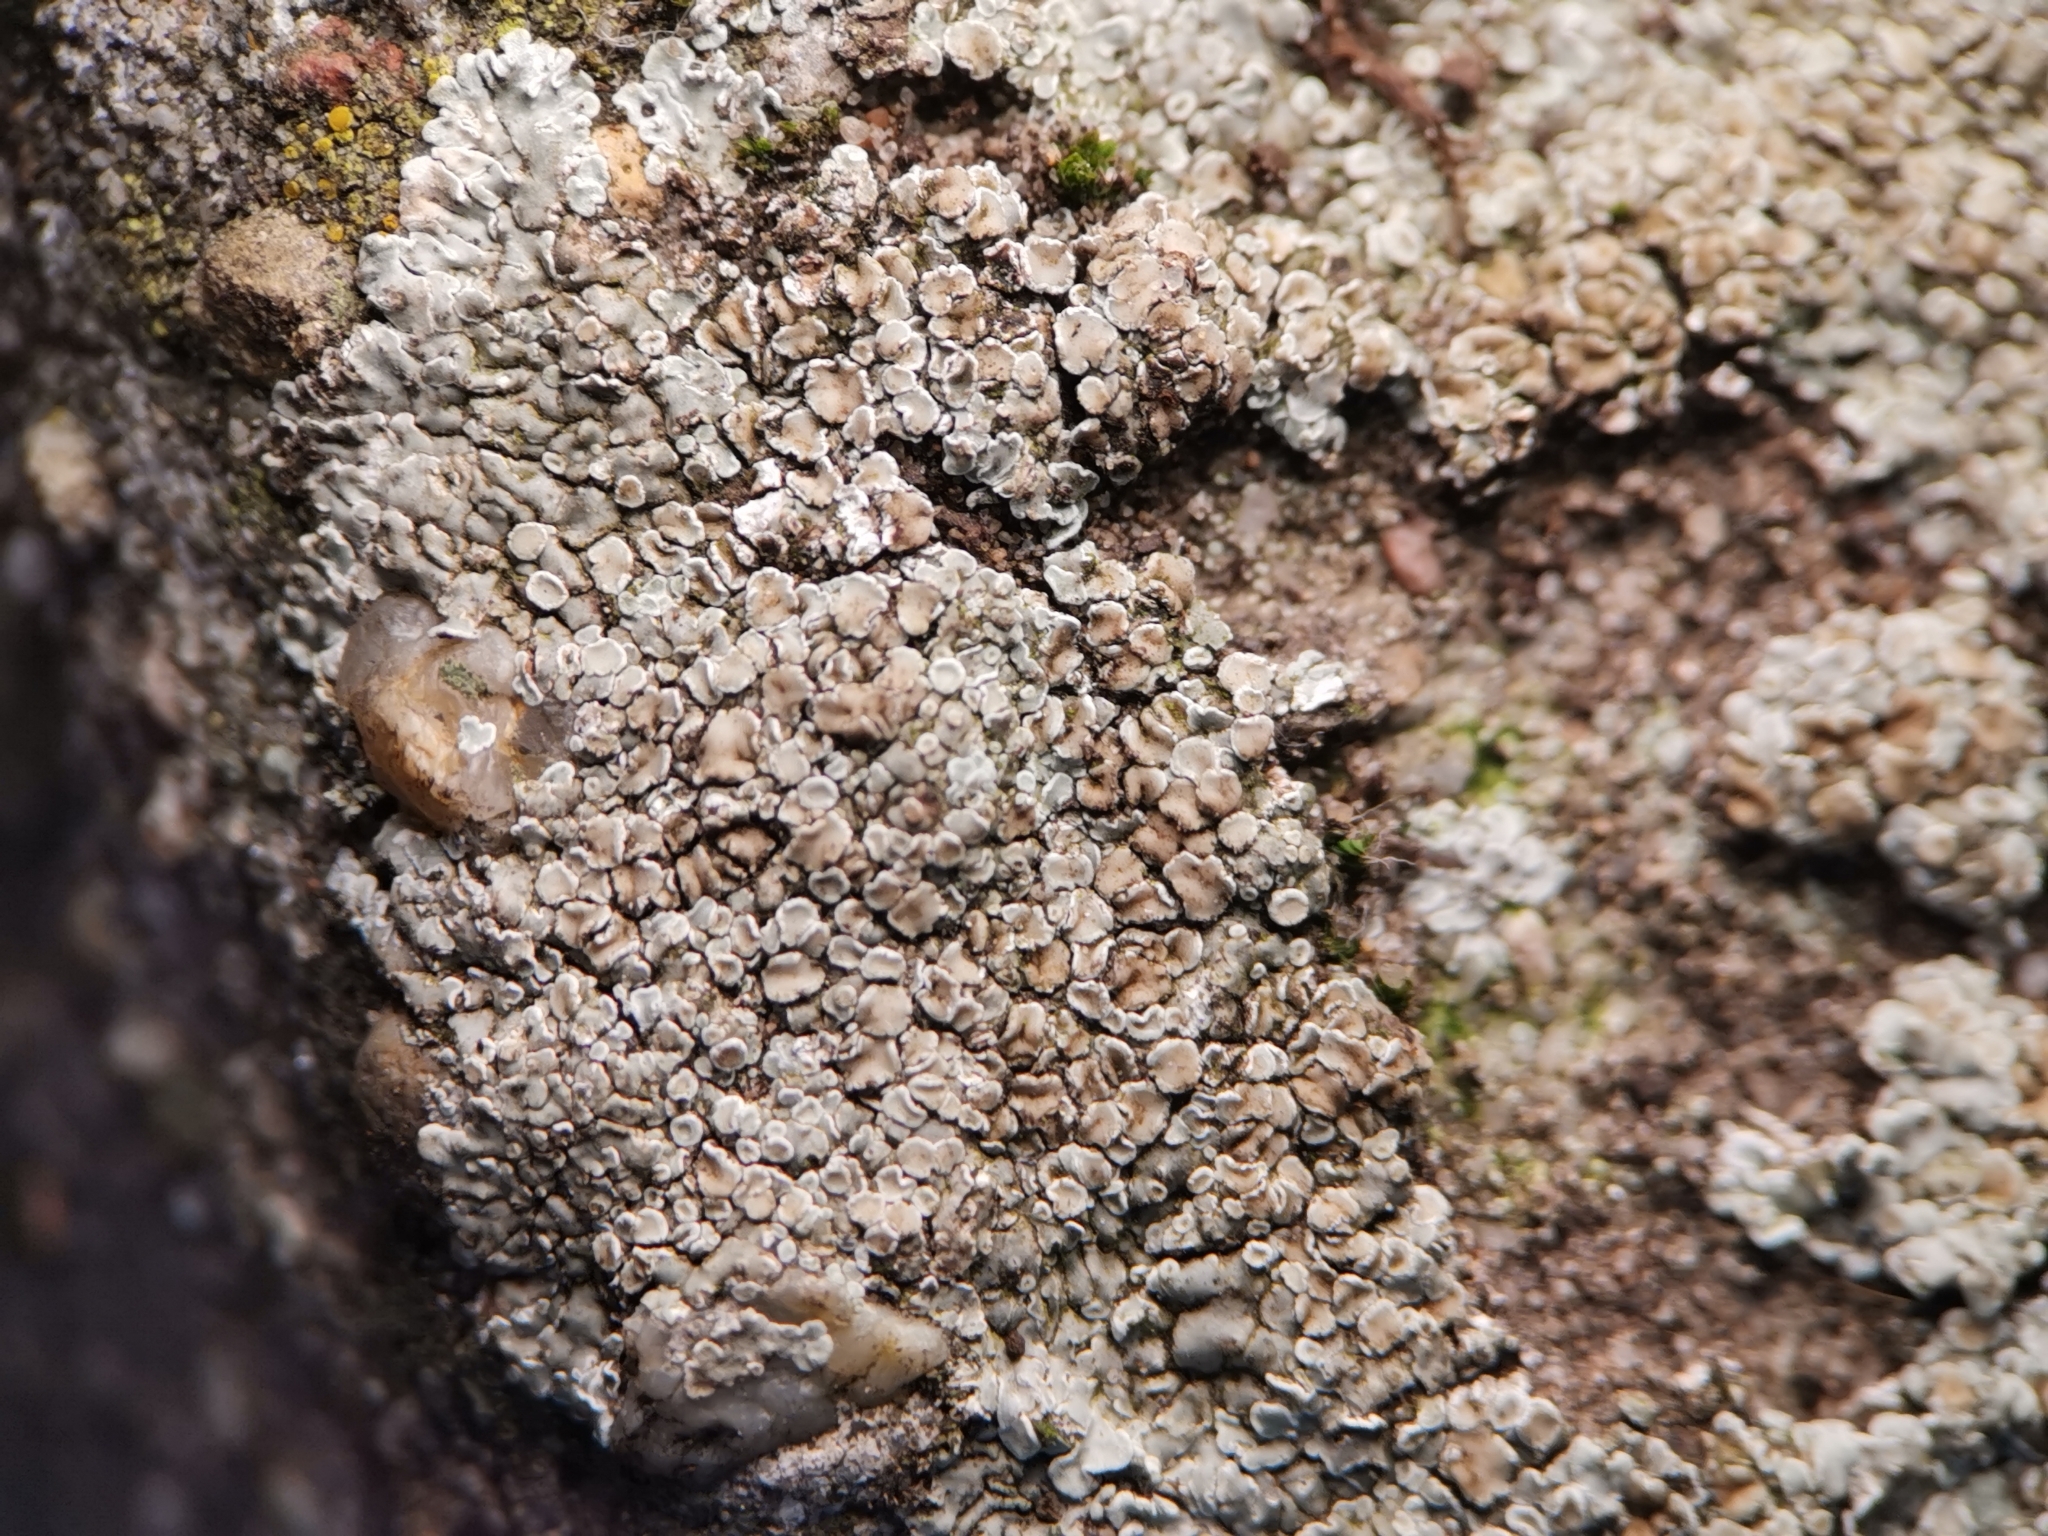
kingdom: Fungi
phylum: Ascomycota
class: Lecanoromycetes
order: Lecanorales
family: Lecanoraceae
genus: Protoparmeliopsis
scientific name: Protoparmeliopsis muralis
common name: Stonewall rim lichen
